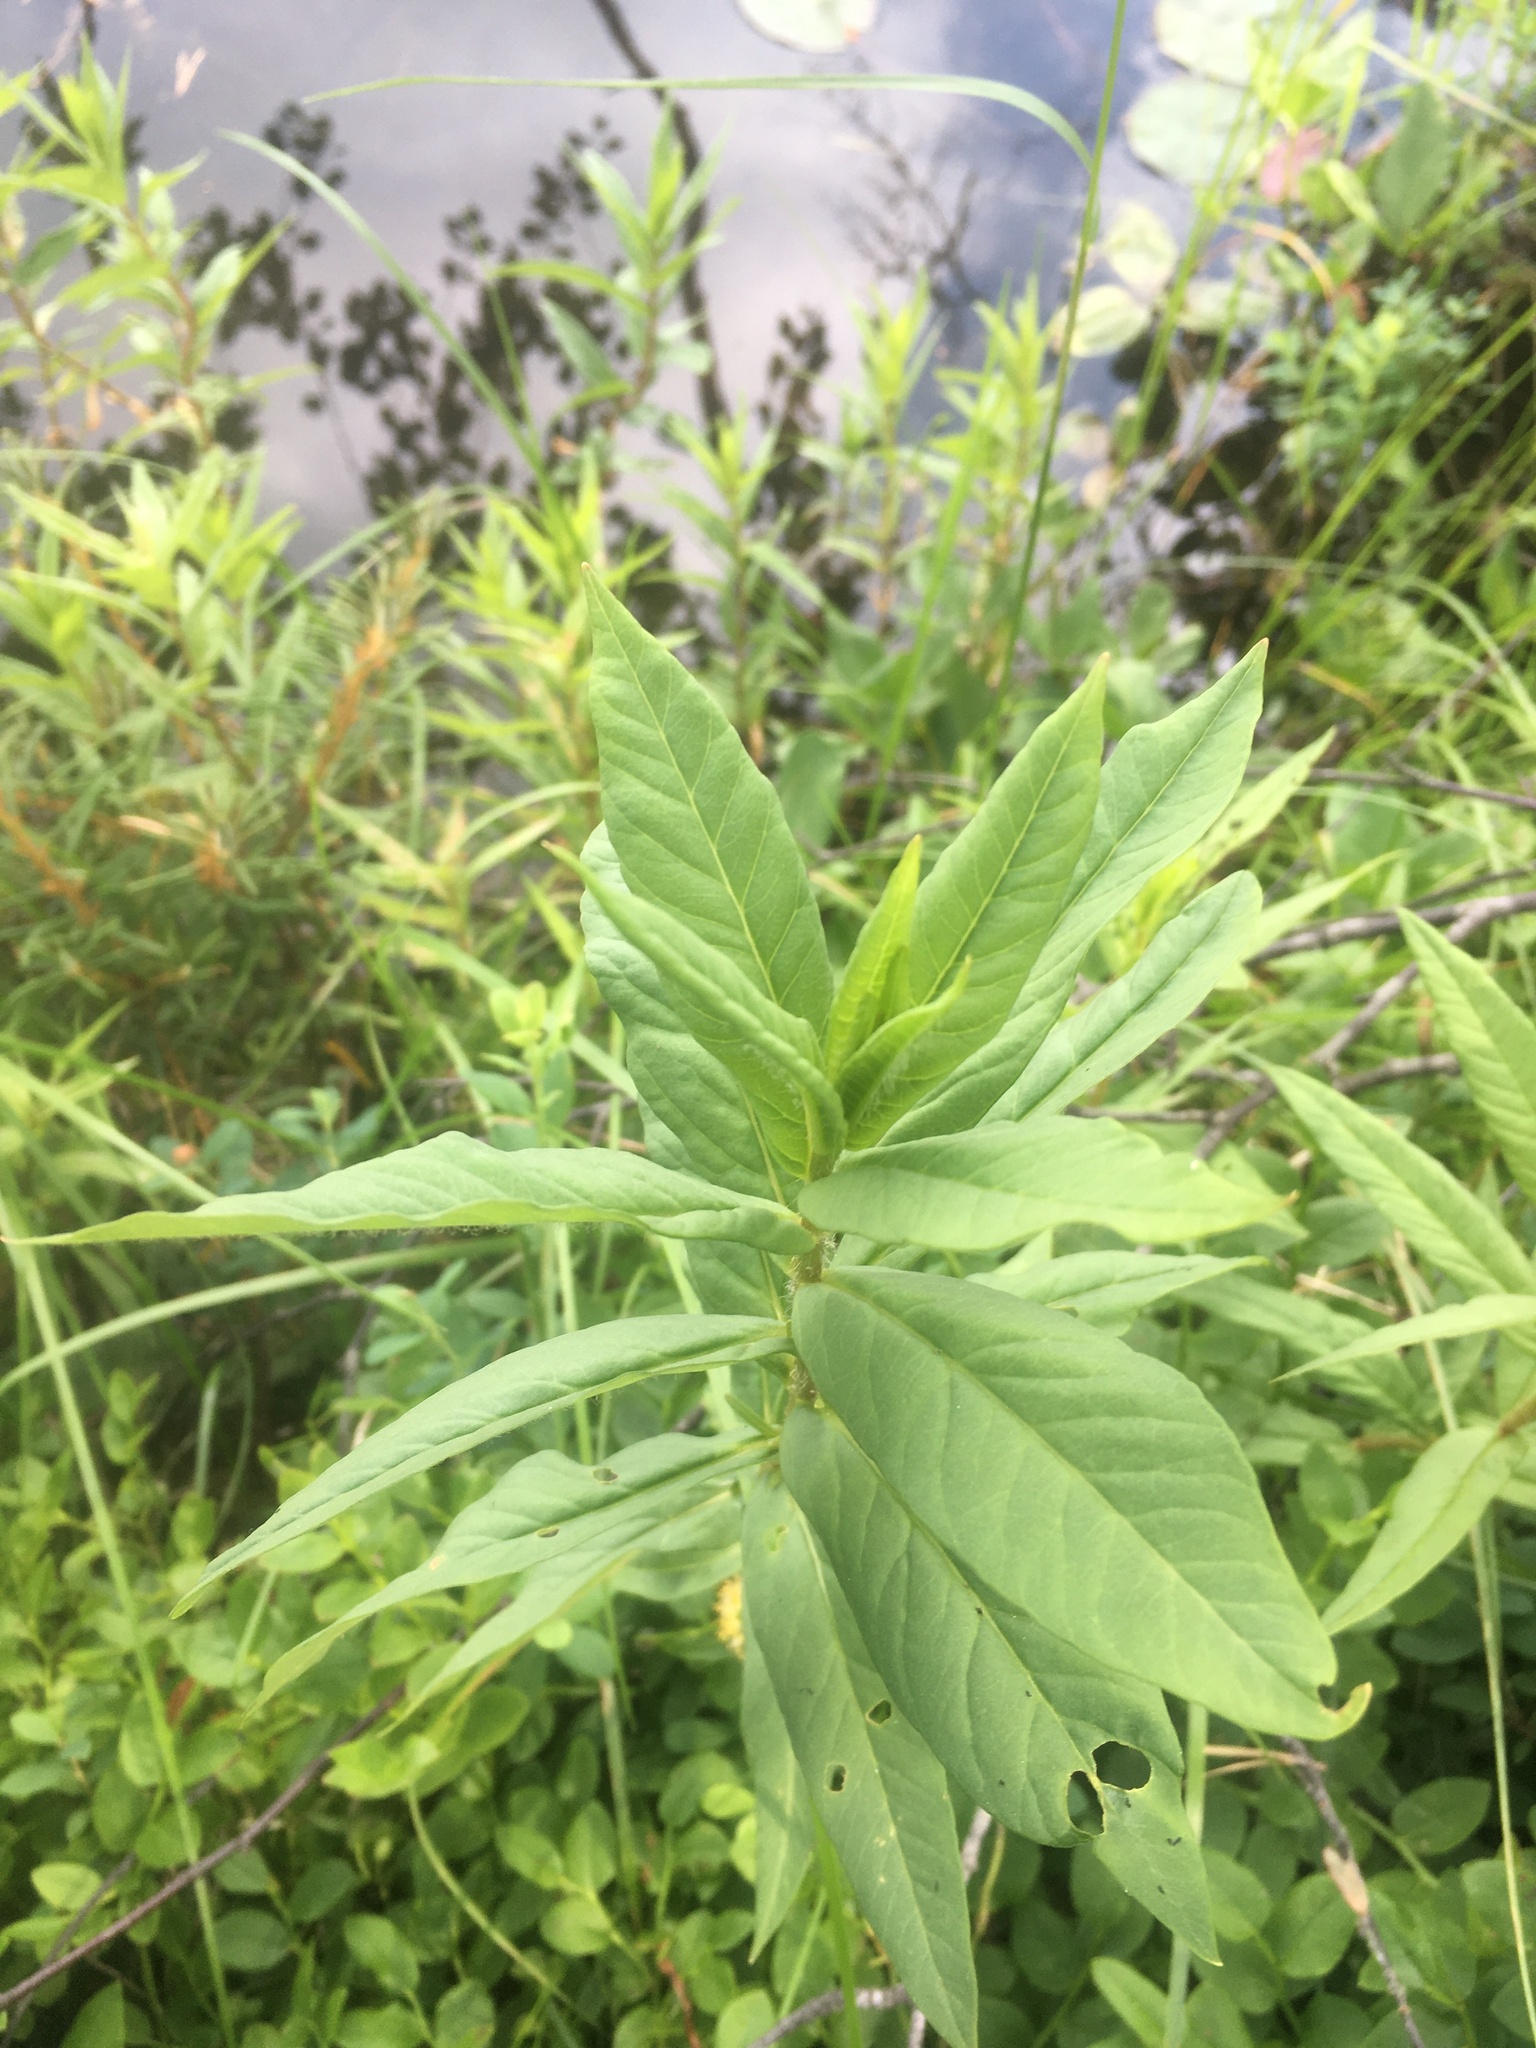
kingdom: Plantae
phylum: Tracheophyta
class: Magnoliopsida
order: Ericales
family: Primulaceae
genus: Lysimachia
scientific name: Lysimachia thyrsiflora
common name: Tufted loosestrife
